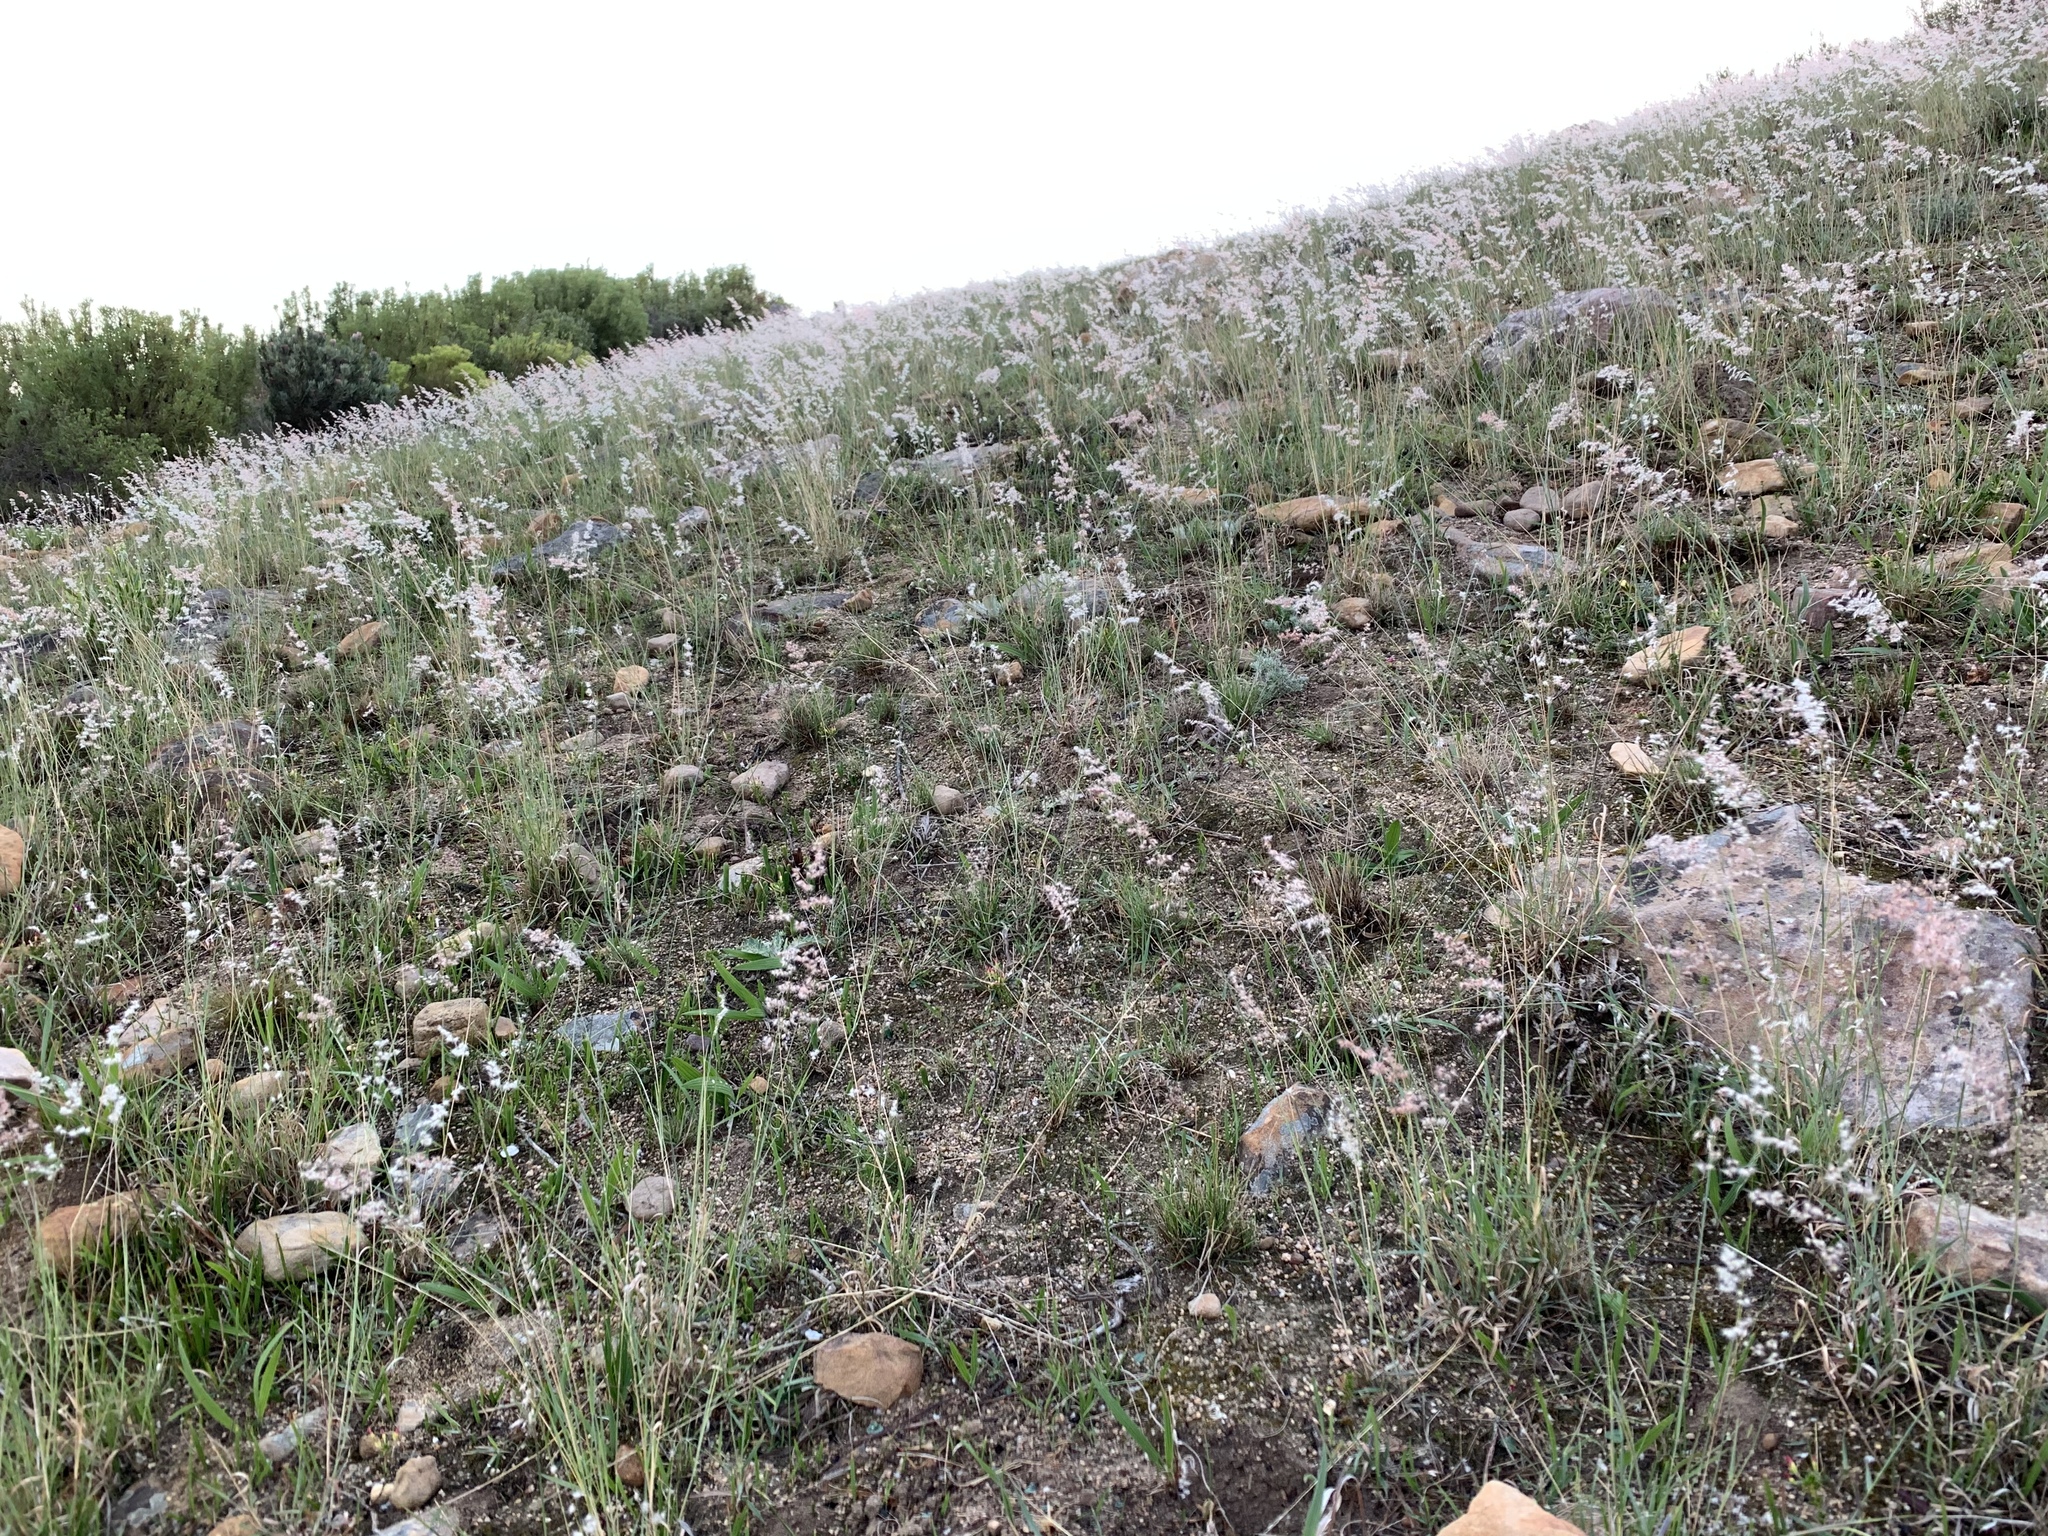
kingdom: Plantae
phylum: Tracheophyta
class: Liliopsida
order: Poales
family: Poaceae
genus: Melinis
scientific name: Melinis repens
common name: Rose natal grass
